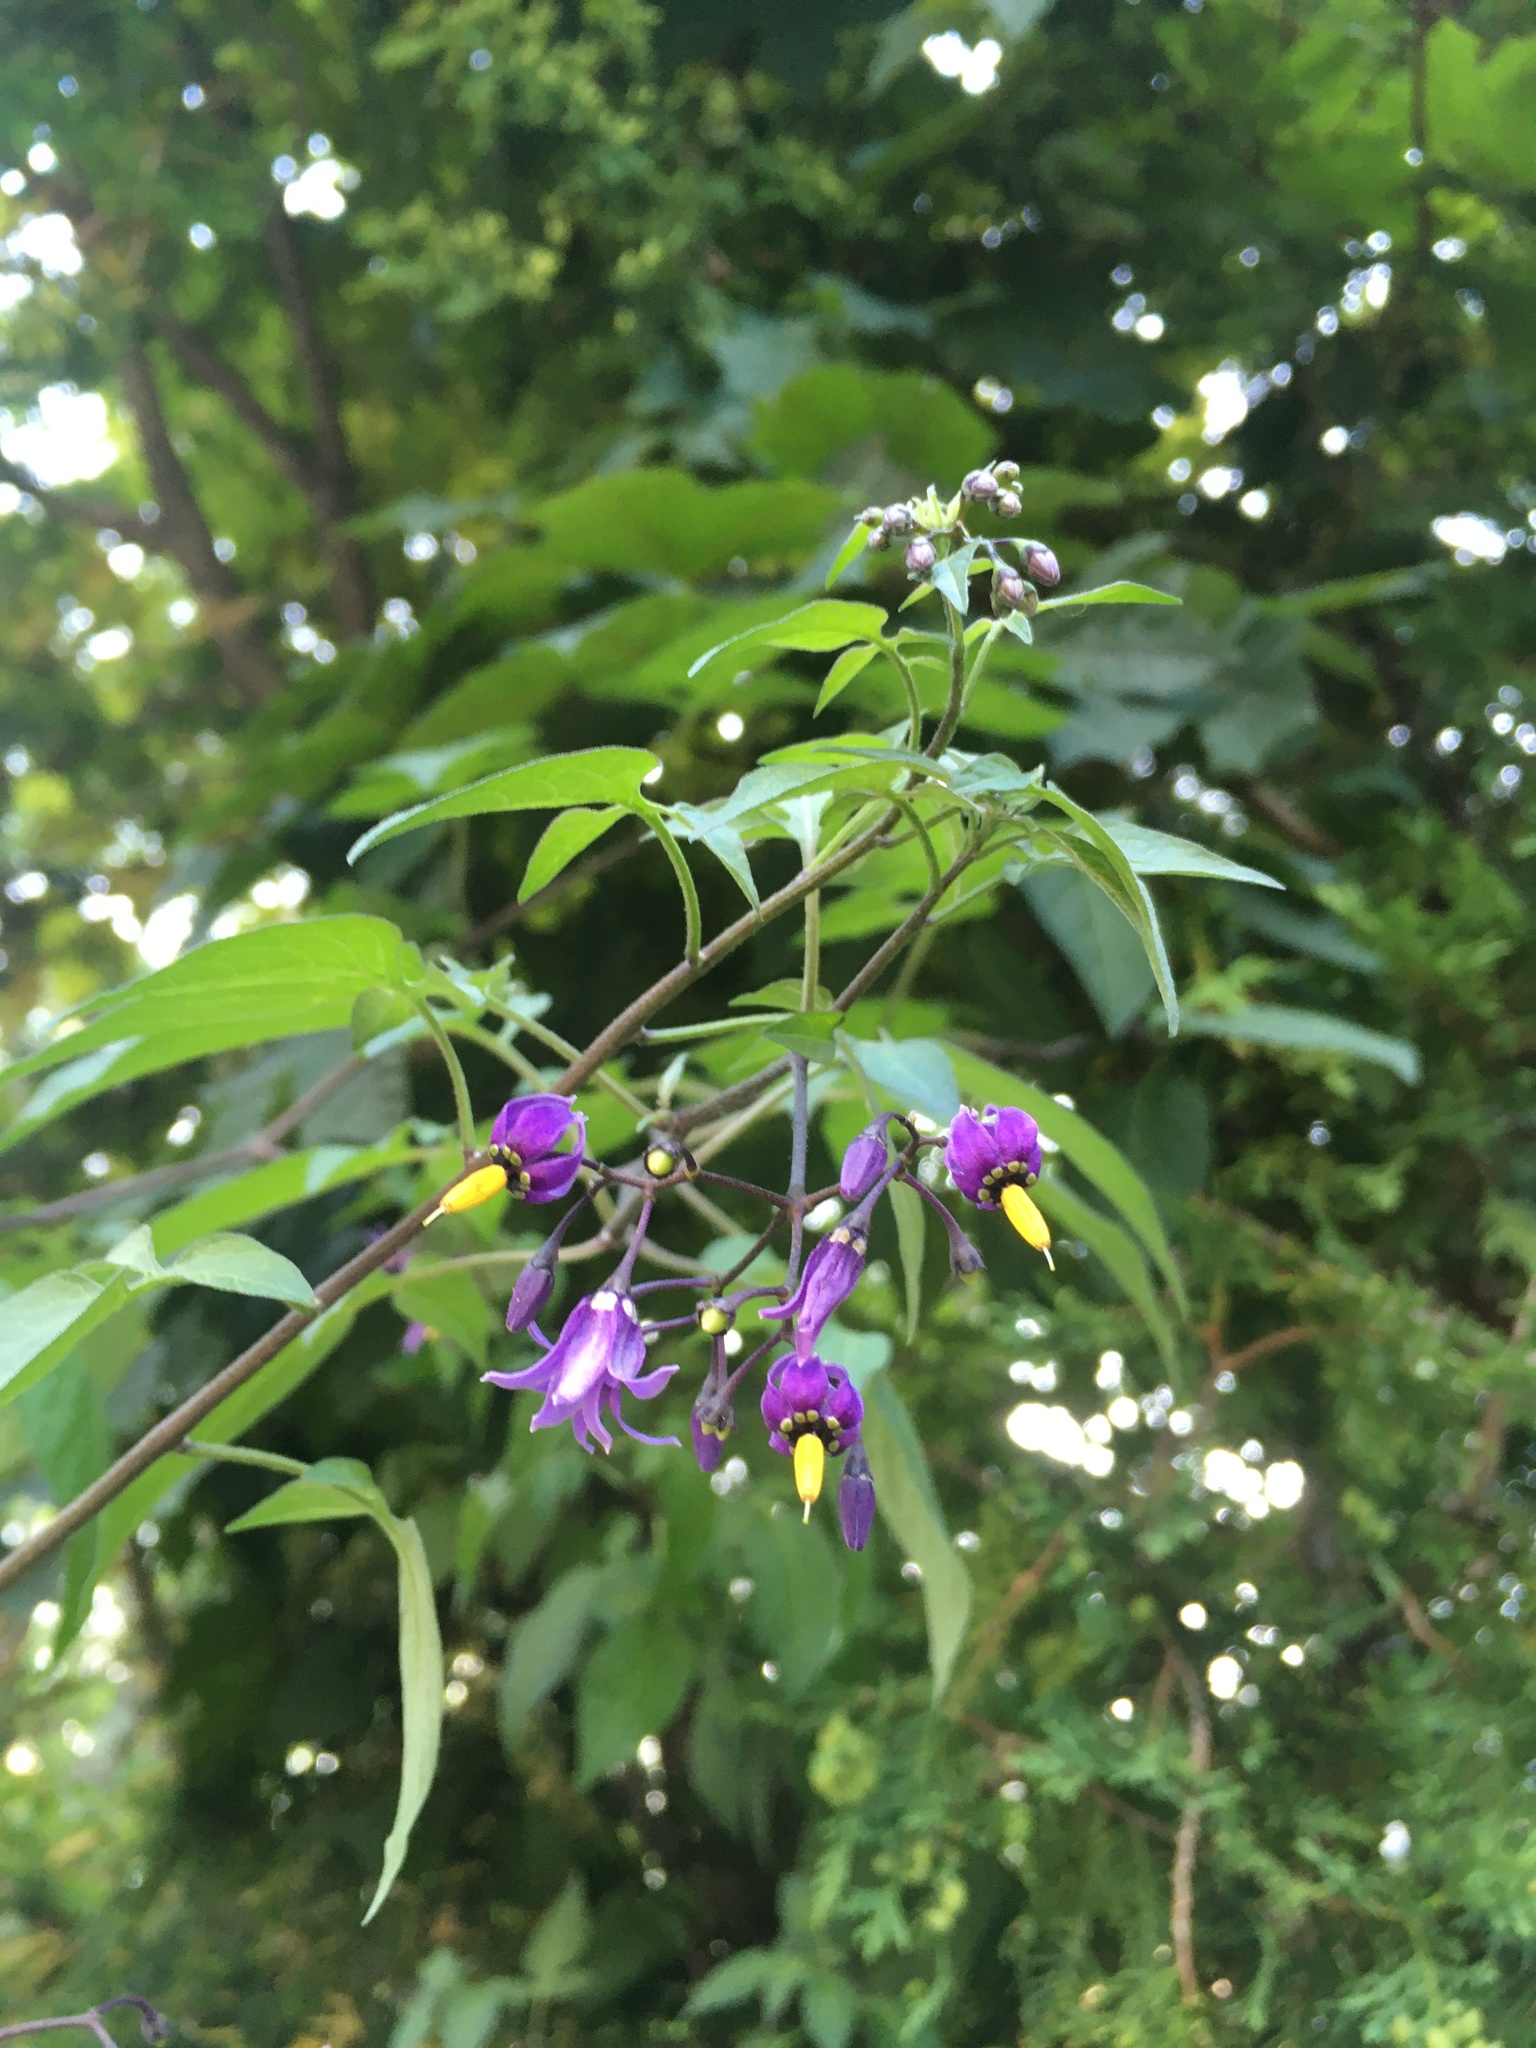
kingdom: Plantae
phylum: Tracheophyta
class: Magnoliopsida
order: Solanales
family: Solanaceae
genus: Solanum
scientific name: Solanum dulcamara
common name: Climbing nightshade
